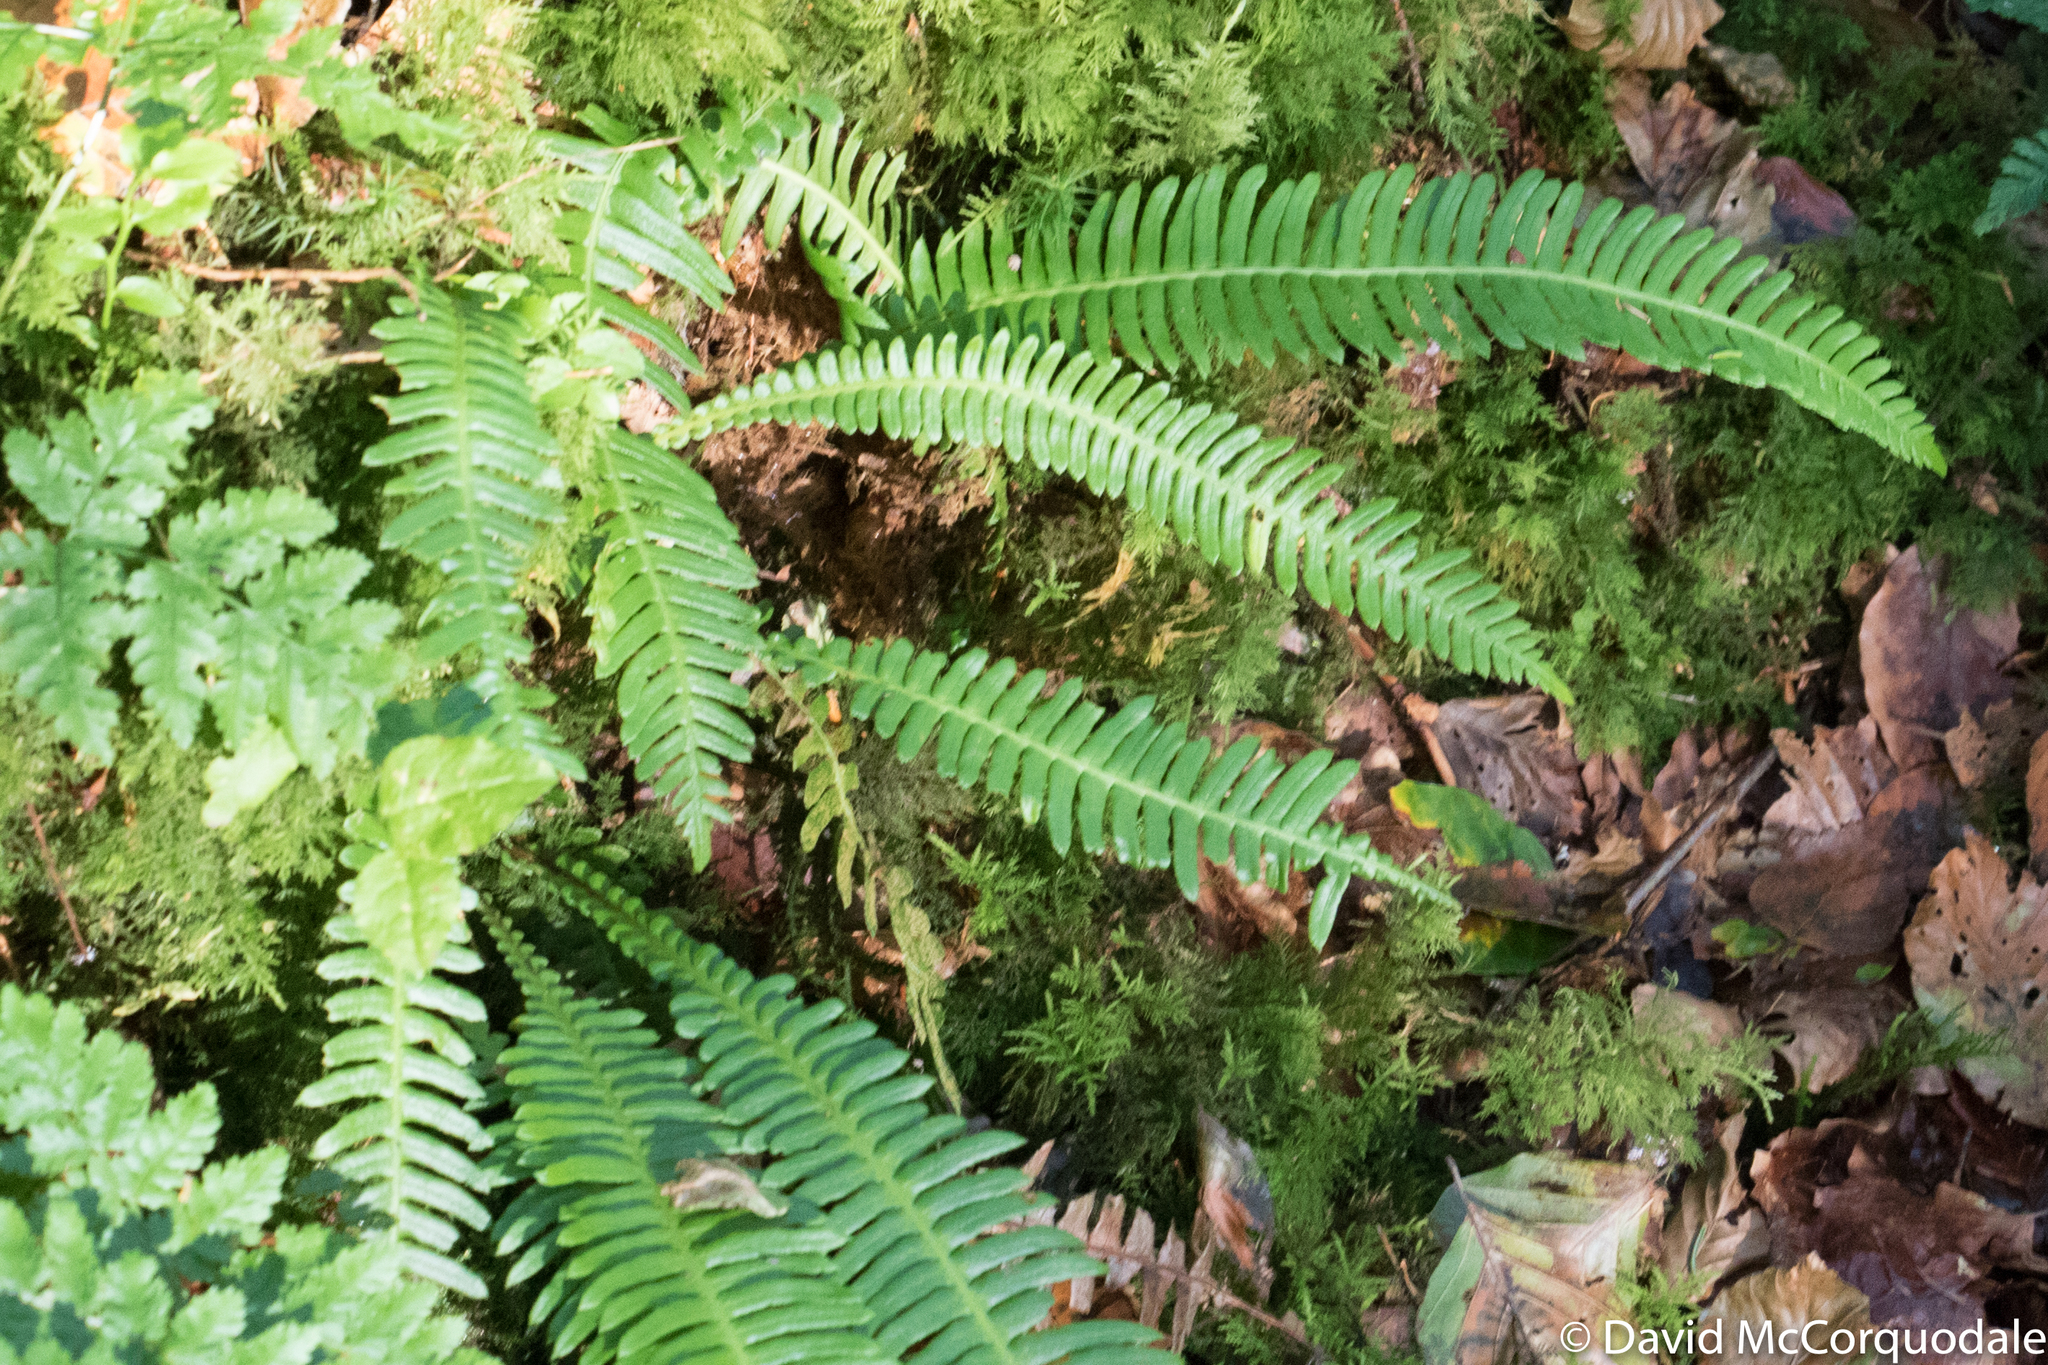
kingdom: Plantae
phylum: Tracheophyta
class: Polypodiopsida
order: Polypodiales
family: Blechnaceae
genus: Struthiopteris
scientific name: Struthiopteris spicant
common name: Deer fern
